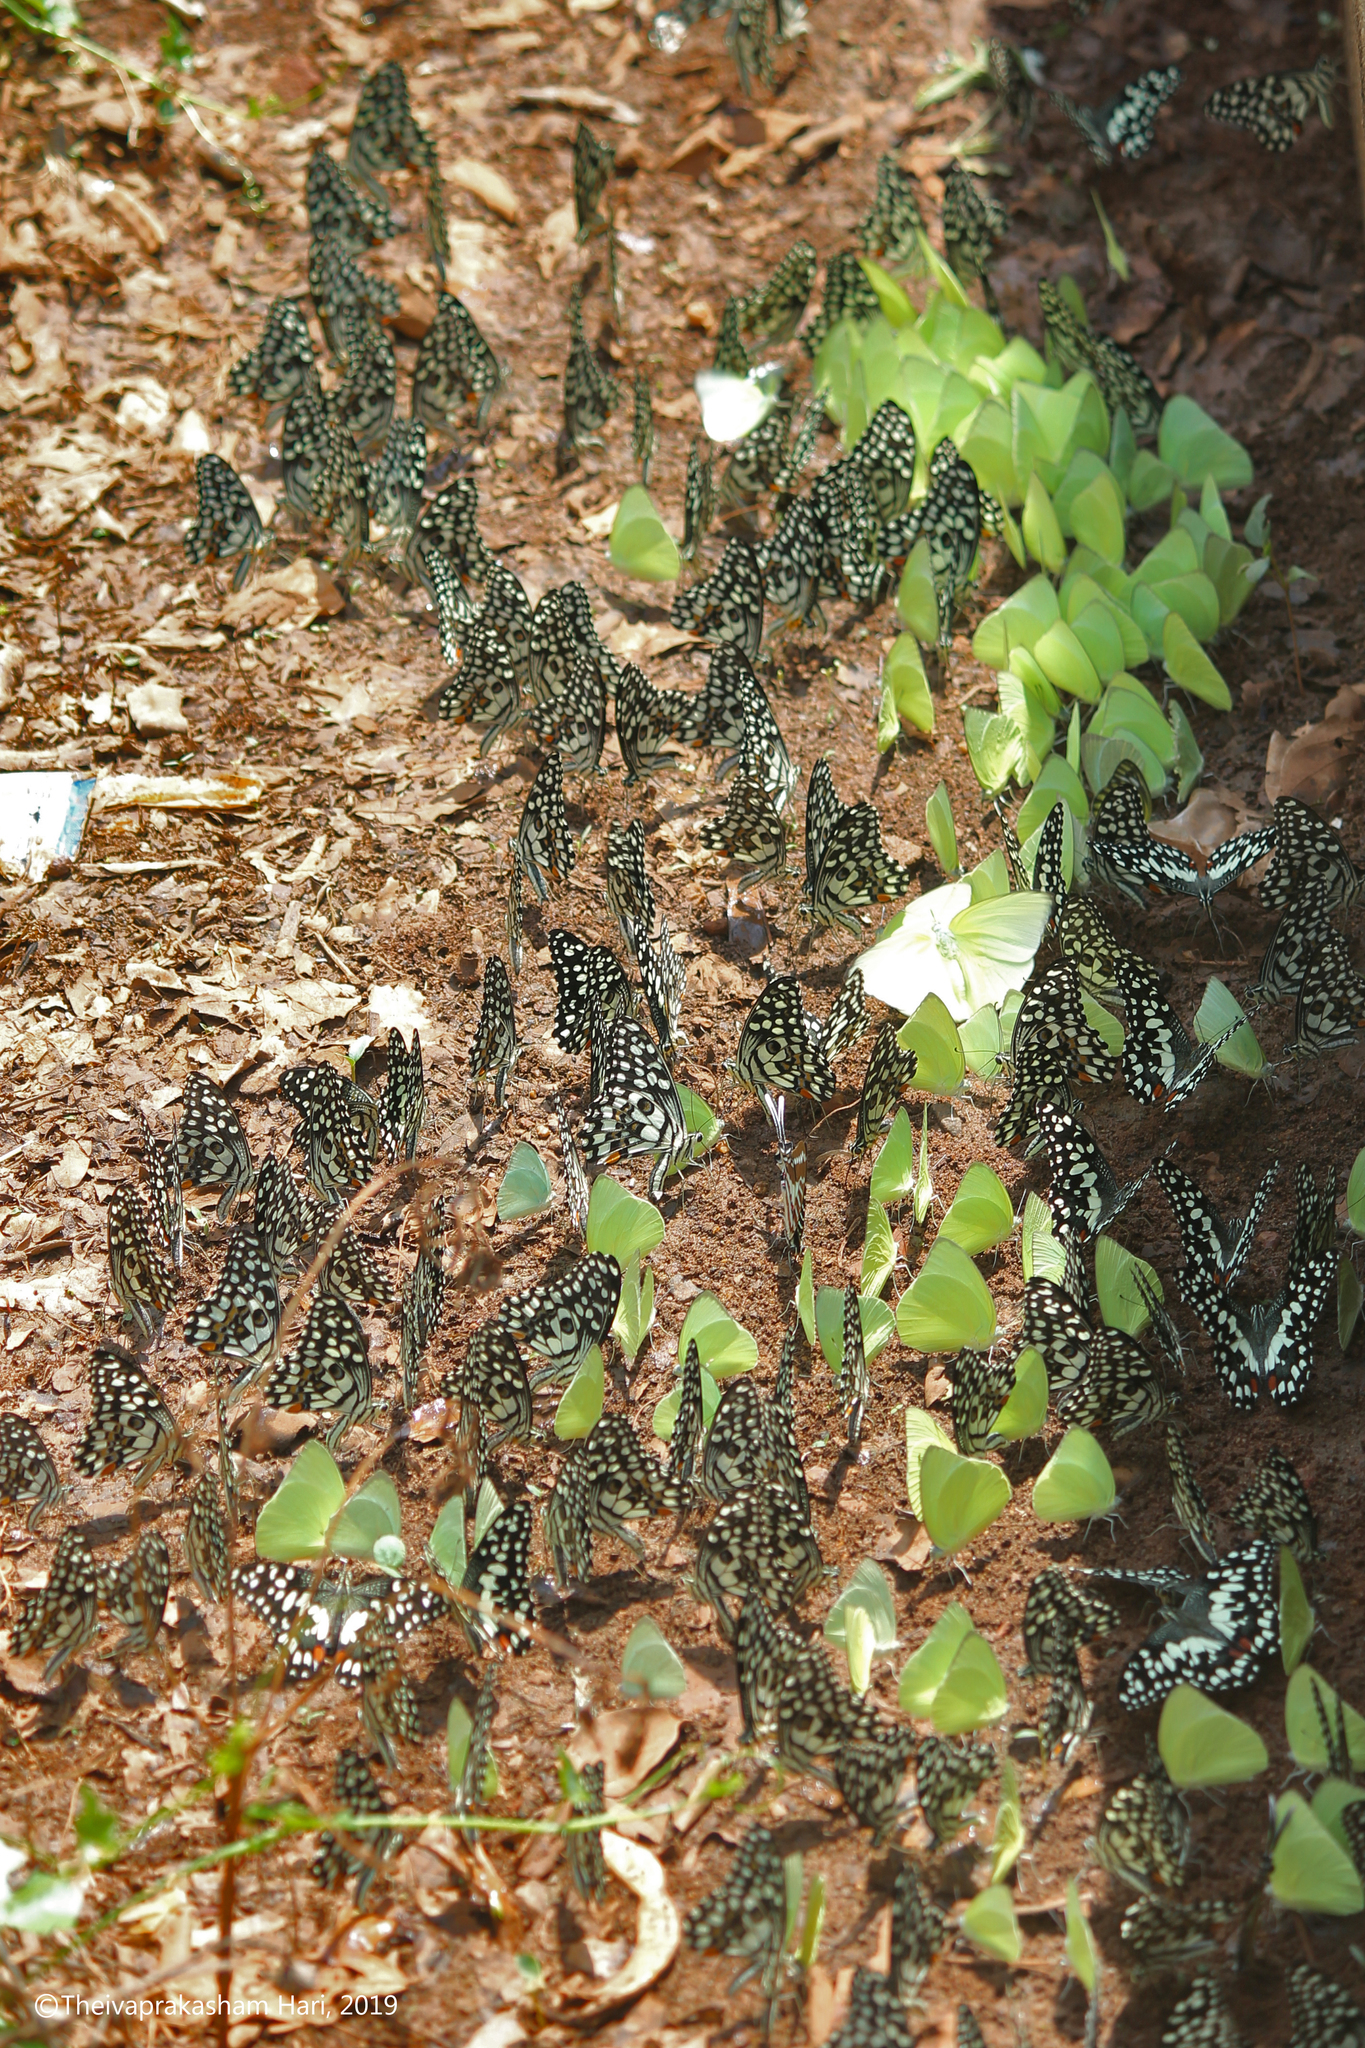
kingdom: Animalia
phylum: Arthropoda
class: Insecta
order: Lepidoptera
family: Papilionidae
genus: Papilio
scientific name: Papilio demoleus
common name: Lime butterfly
